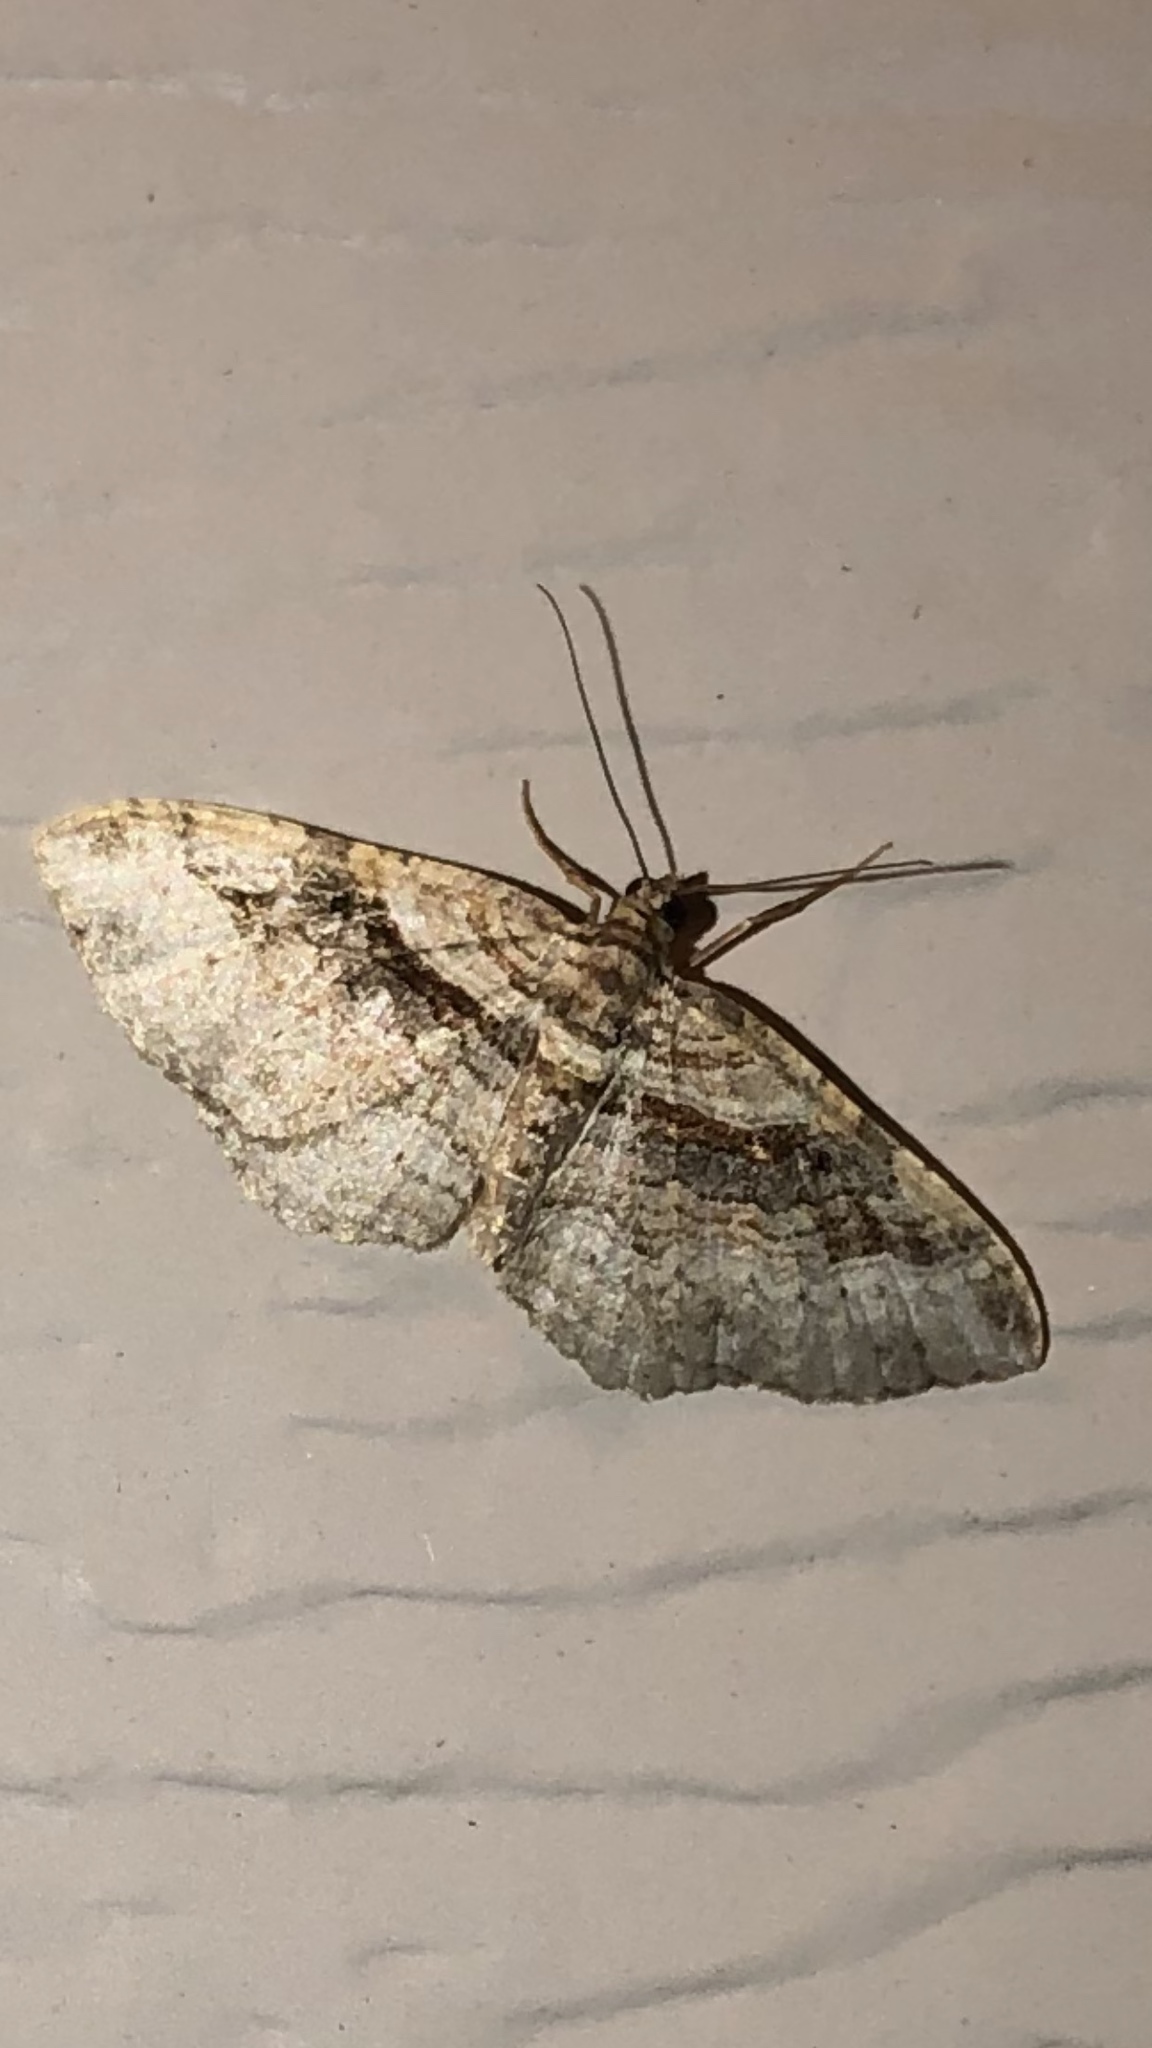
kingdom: Animalia
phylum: Arthropoda
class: Insecta
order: Lepidoptera
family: Geometridae
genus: Costaconvexa
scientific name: Costaconvexa centrostrigaria
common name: Bent-line carpet
